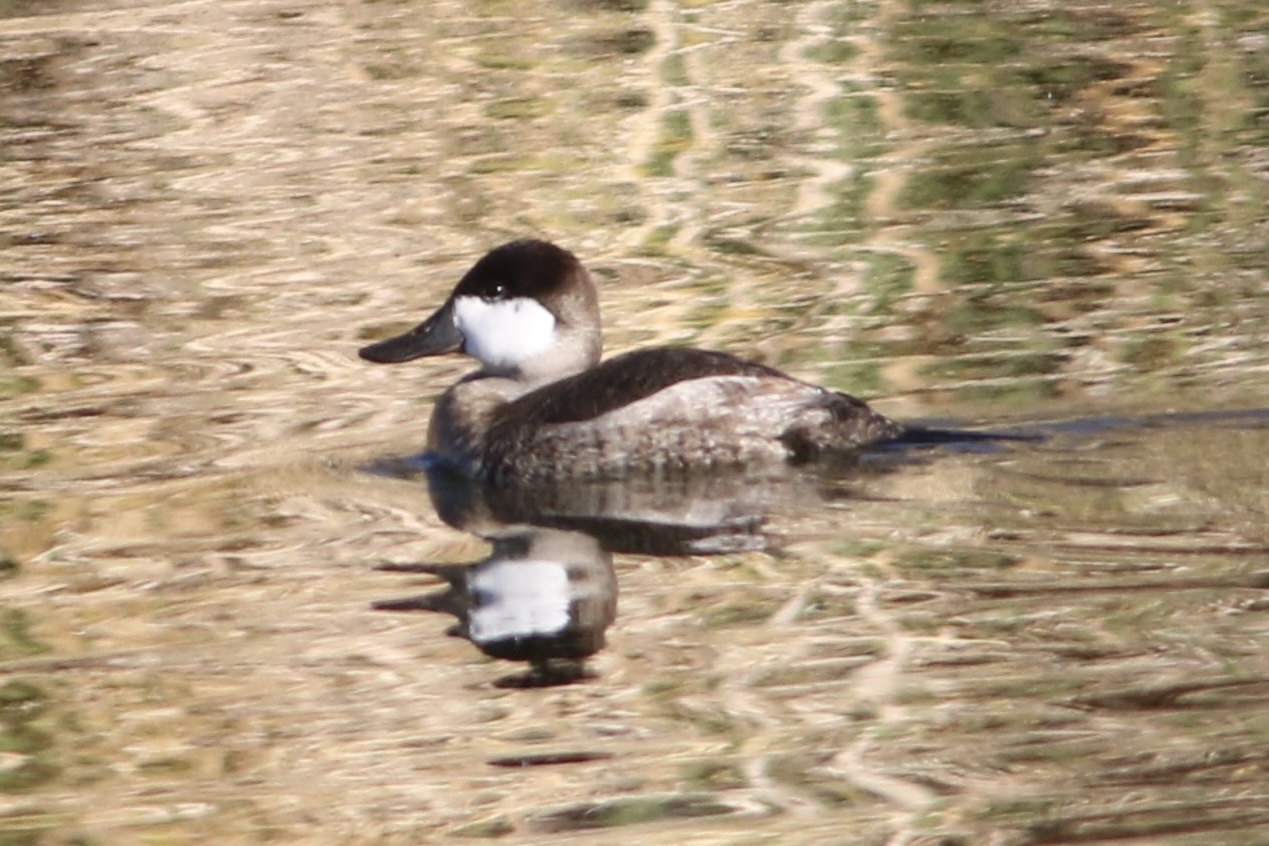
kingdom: Animalia
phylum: Chordata
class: Aves
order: Anseriformes
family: Anatidae
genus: Oxyura
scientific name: Oxyura jamaicensis
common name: Ruddy duck
